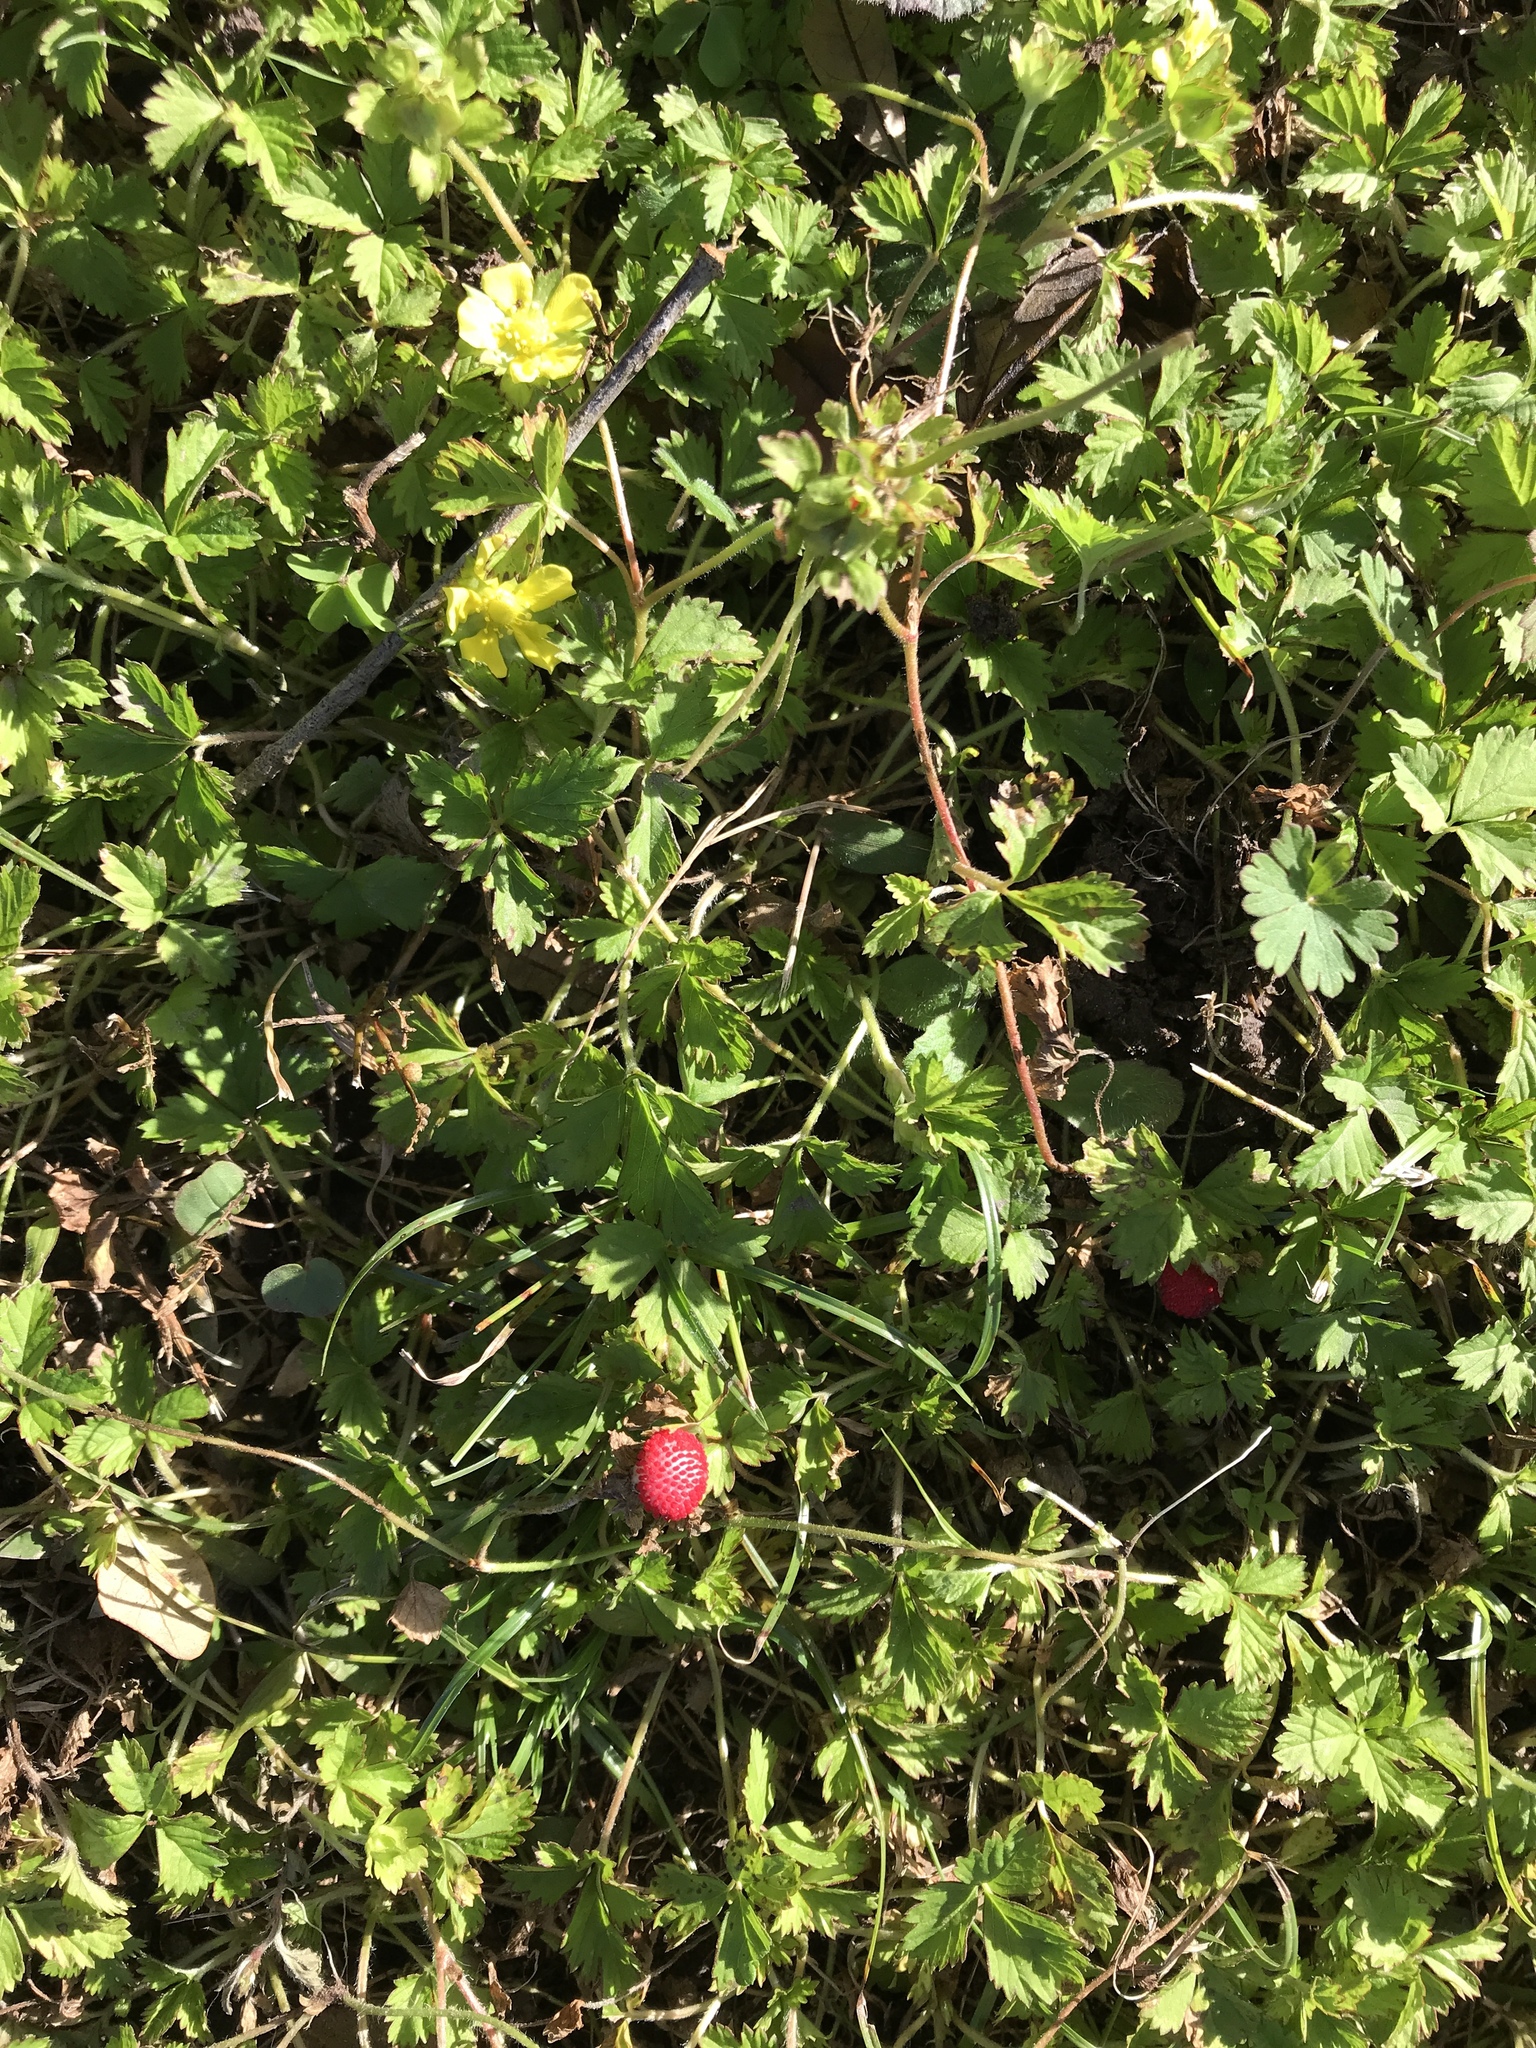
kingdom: Plantae
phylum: Tracheophyta
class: Magnoliopsida
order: Rosales
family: Rosaceae
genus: Potentilla
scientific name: Potentilla indica
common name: Yellow-flowered strawberry
